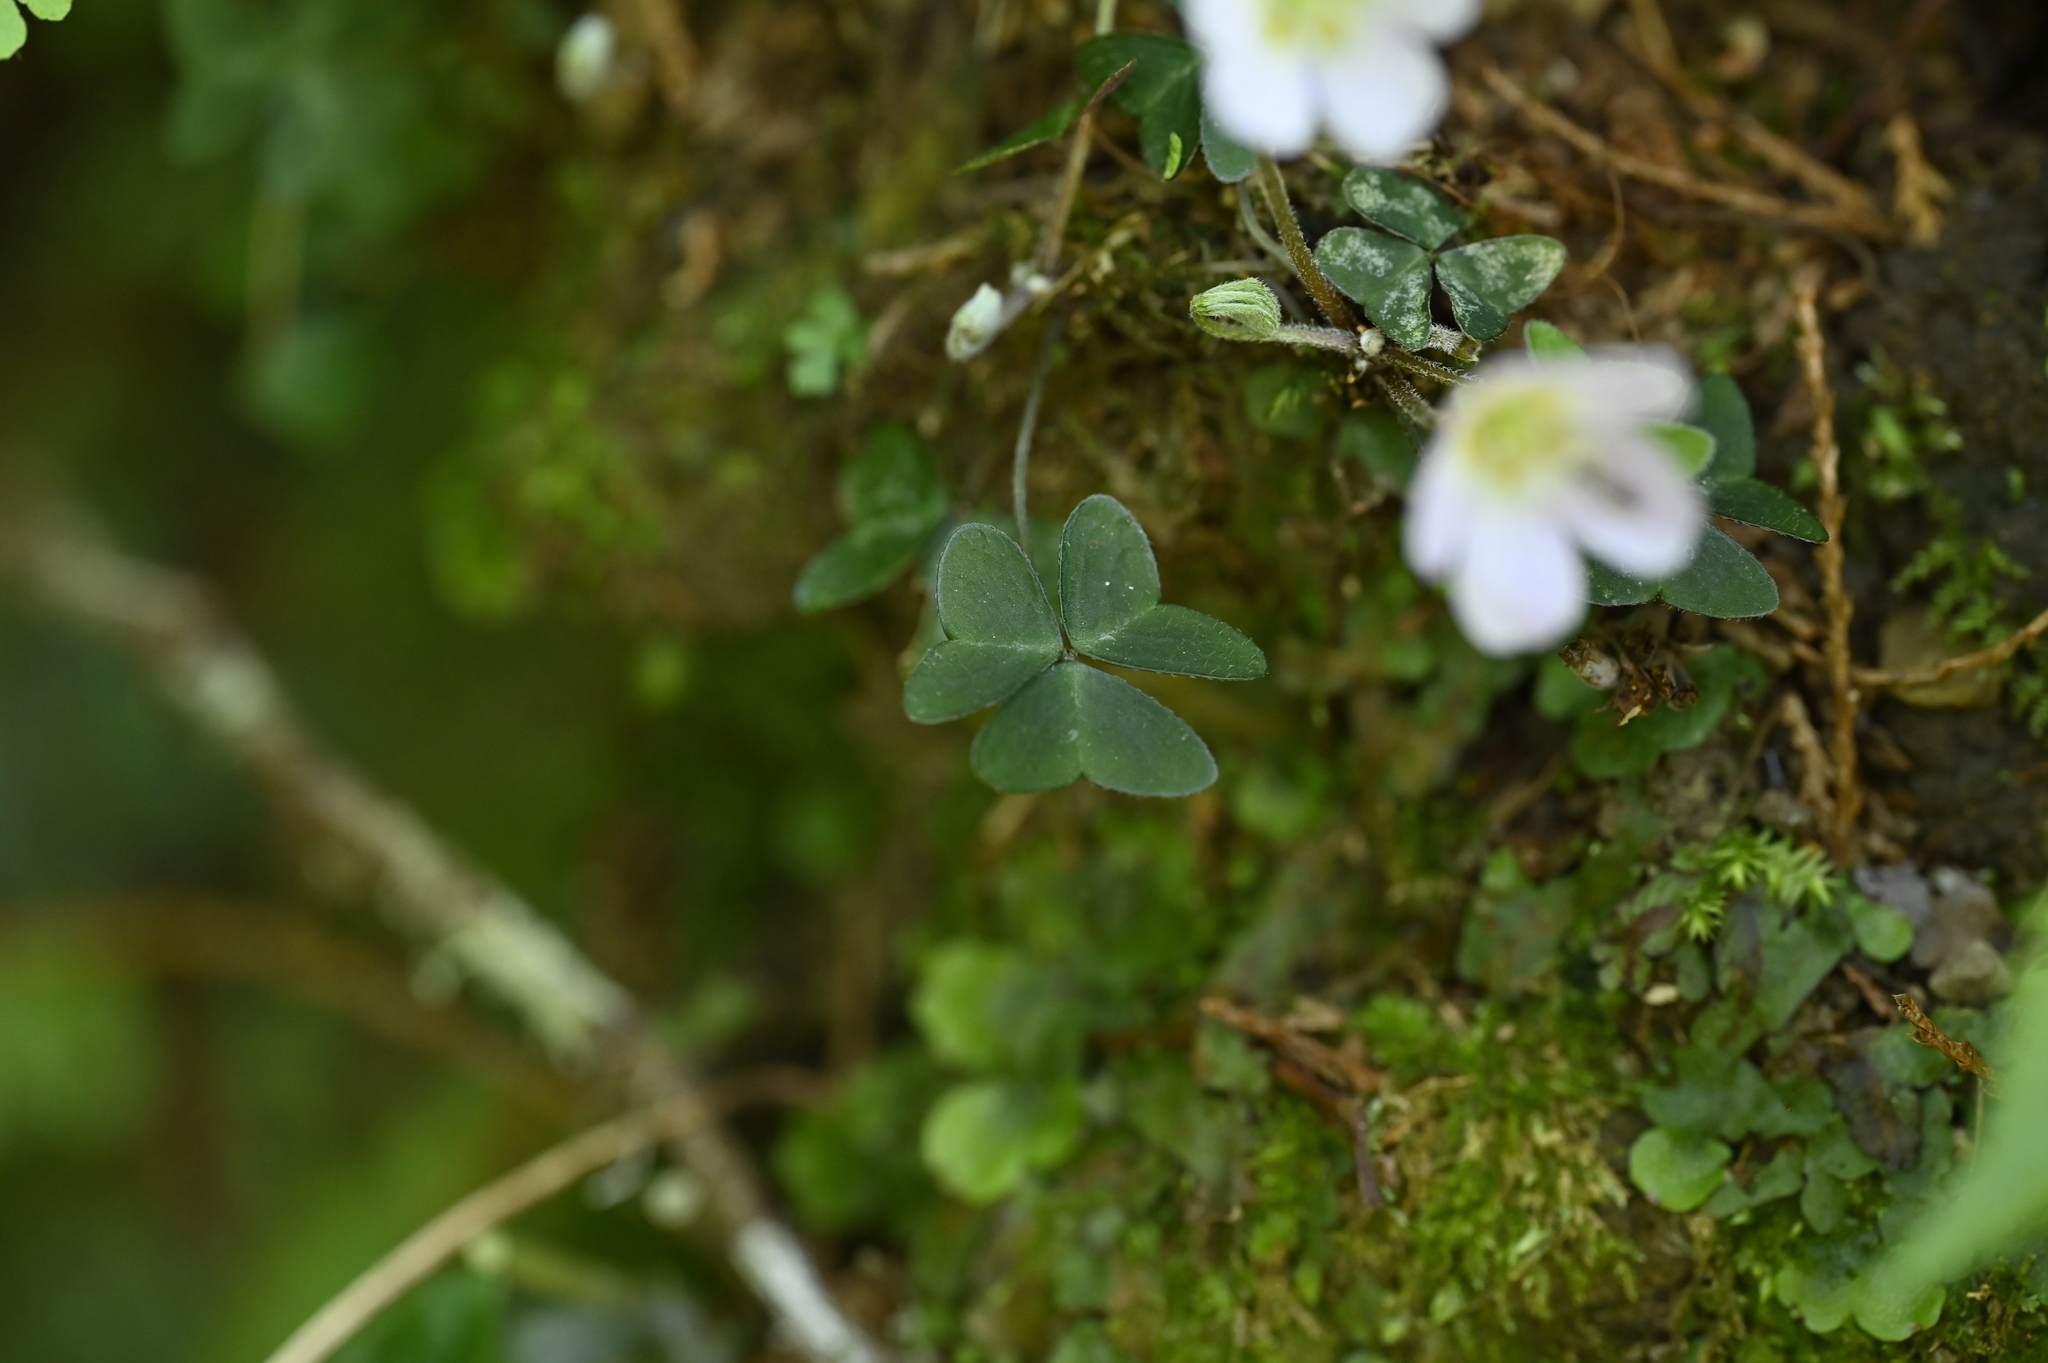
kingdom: Plantae
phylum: Tracheophyta
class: Magnoliopsida
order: Oxalidales
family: Oxalidaceae
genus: Oxalis
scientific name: Oxalis griffithii
